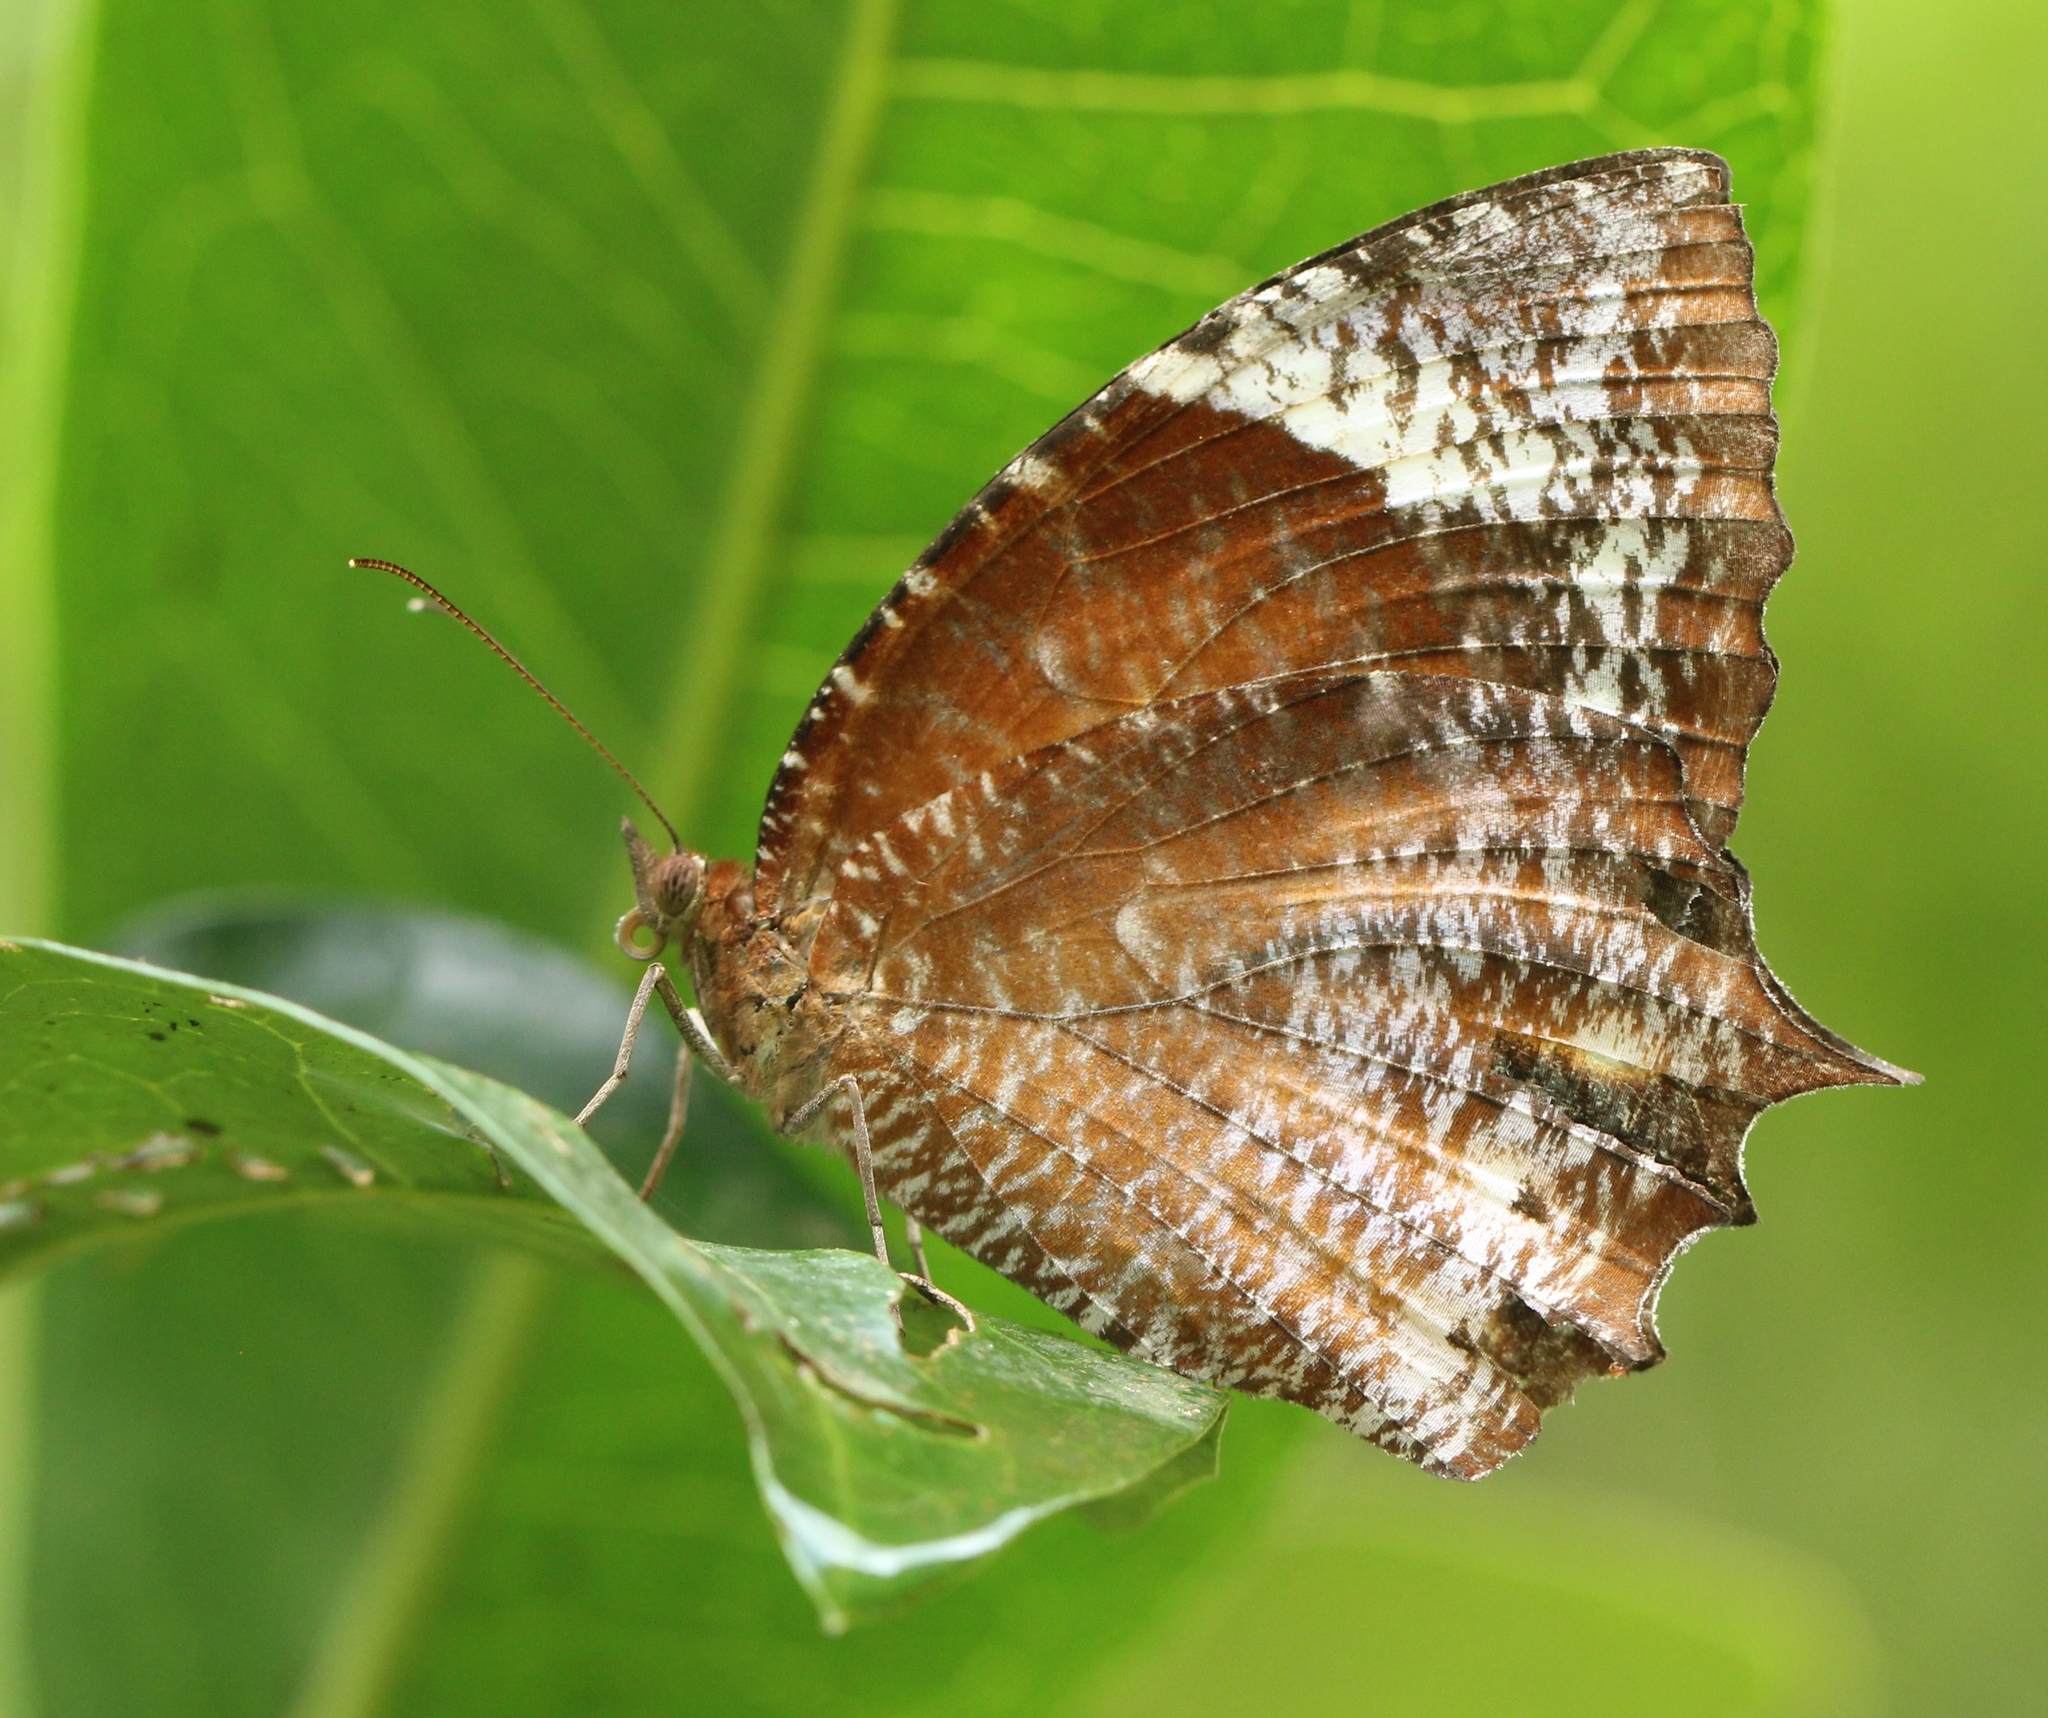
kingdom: Animalia
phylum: Arthropoda
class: Insecta
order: Lepidoptera
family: Nymphalidae
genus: Elymnias
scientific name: Elymnias caudata
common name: Tailed palmfly
